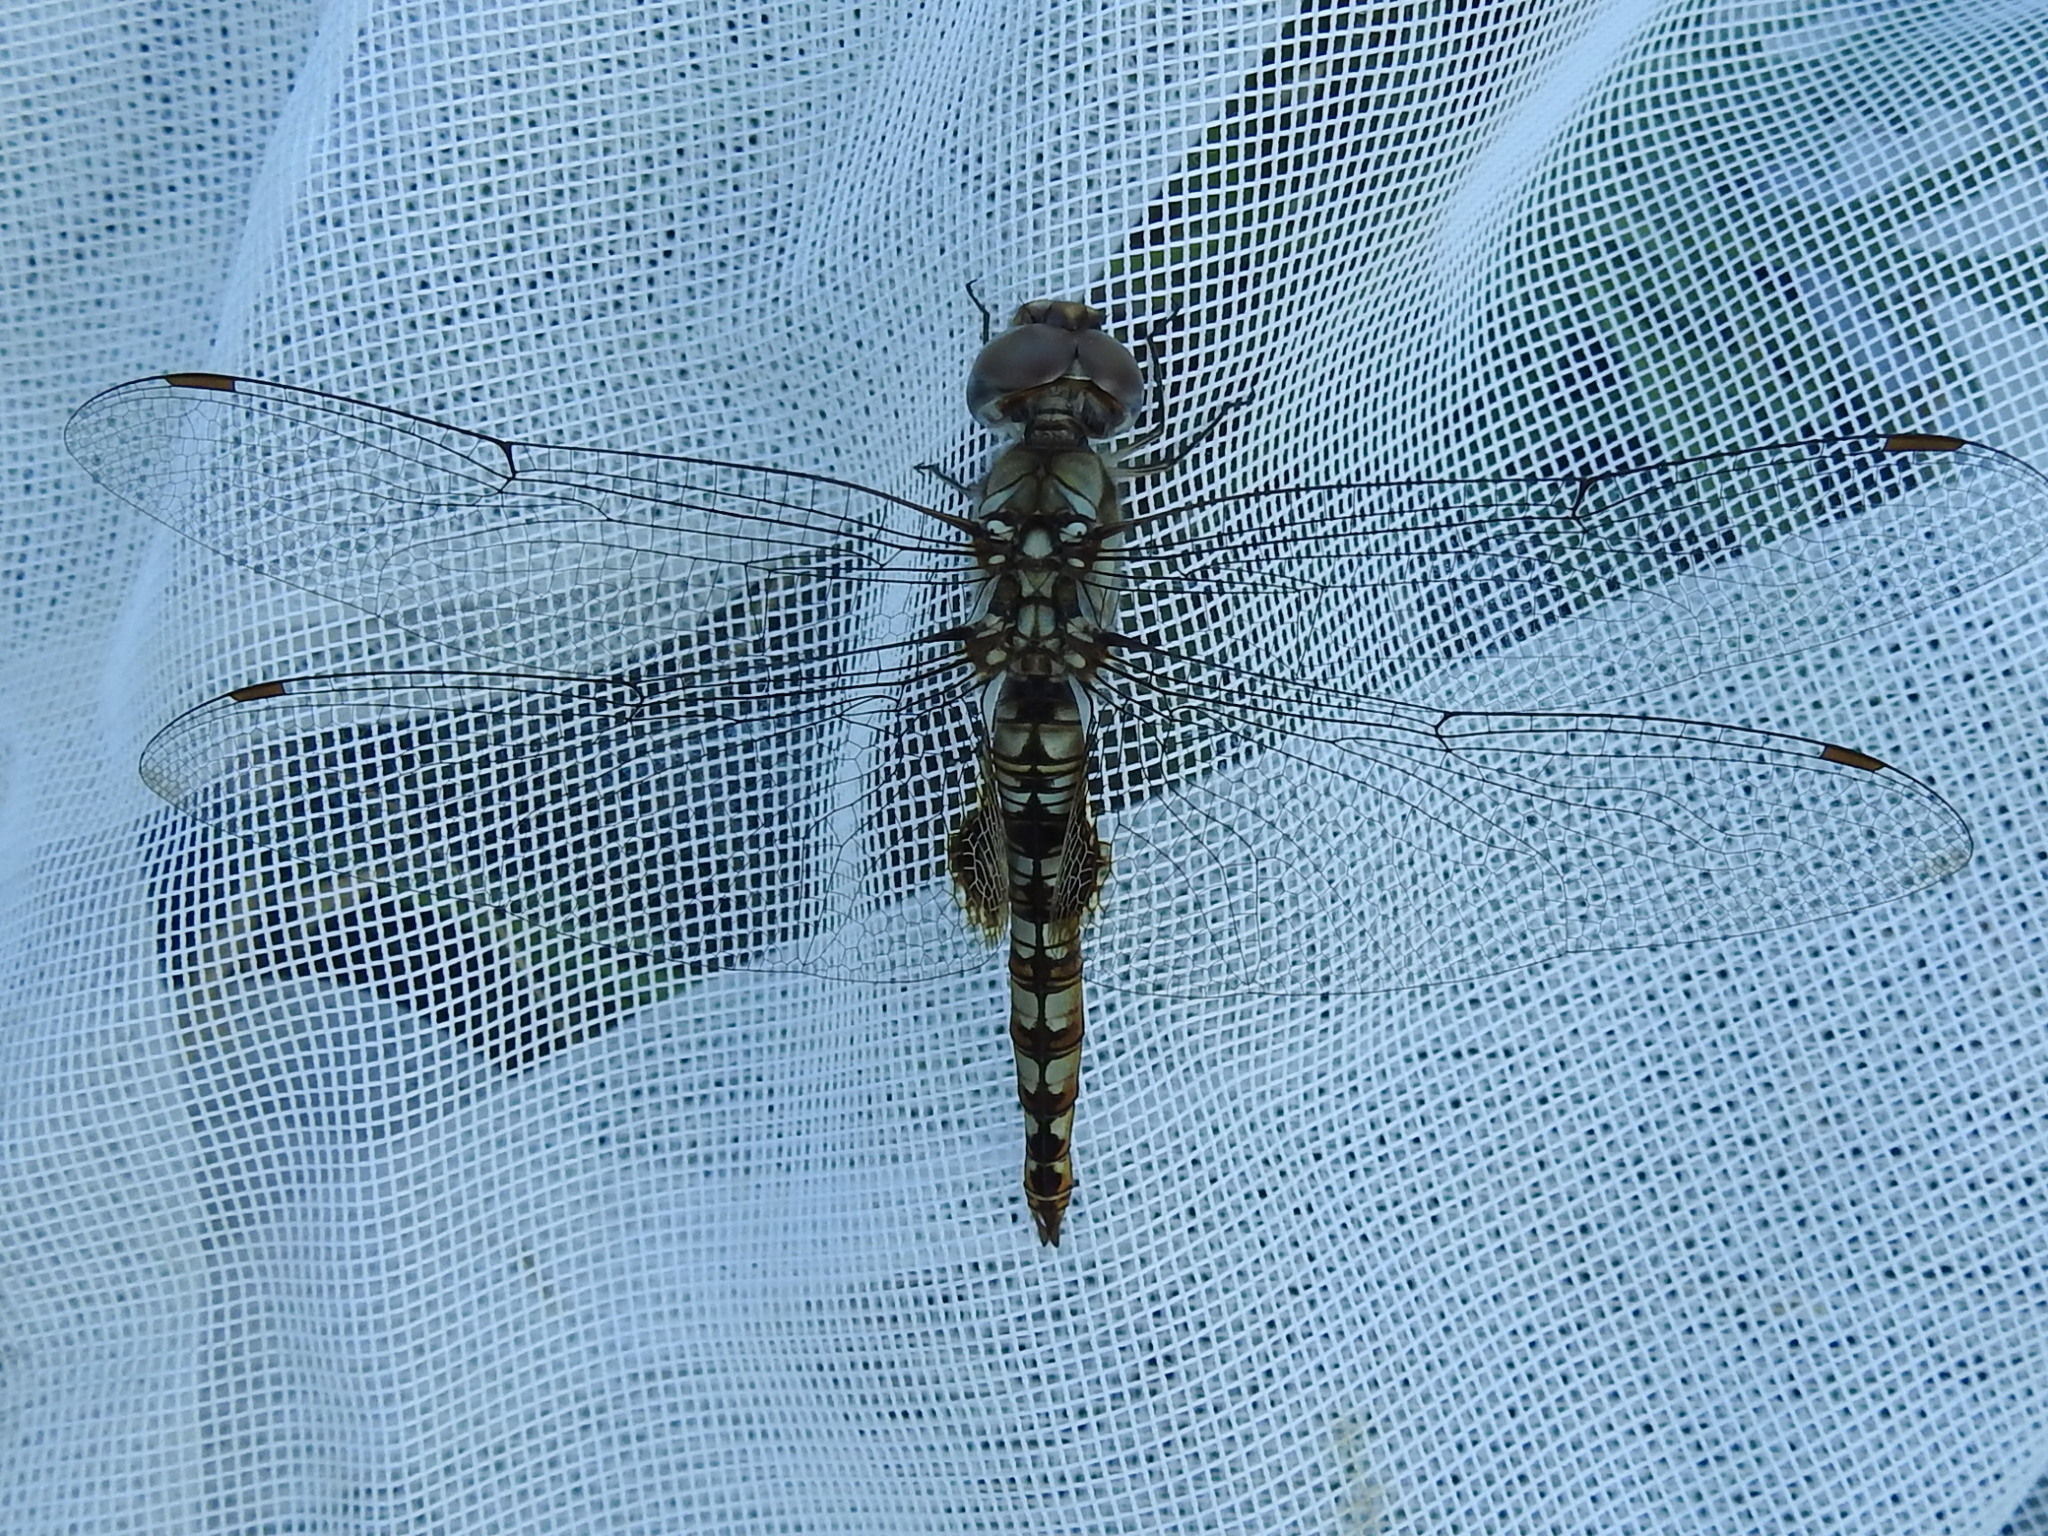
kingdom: Animalia
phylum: Arthropoda
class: Insecta
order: Odonata
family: Libellulidae
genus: Pantala
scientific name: Pantala hymenaea
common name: Spot-winged glider
